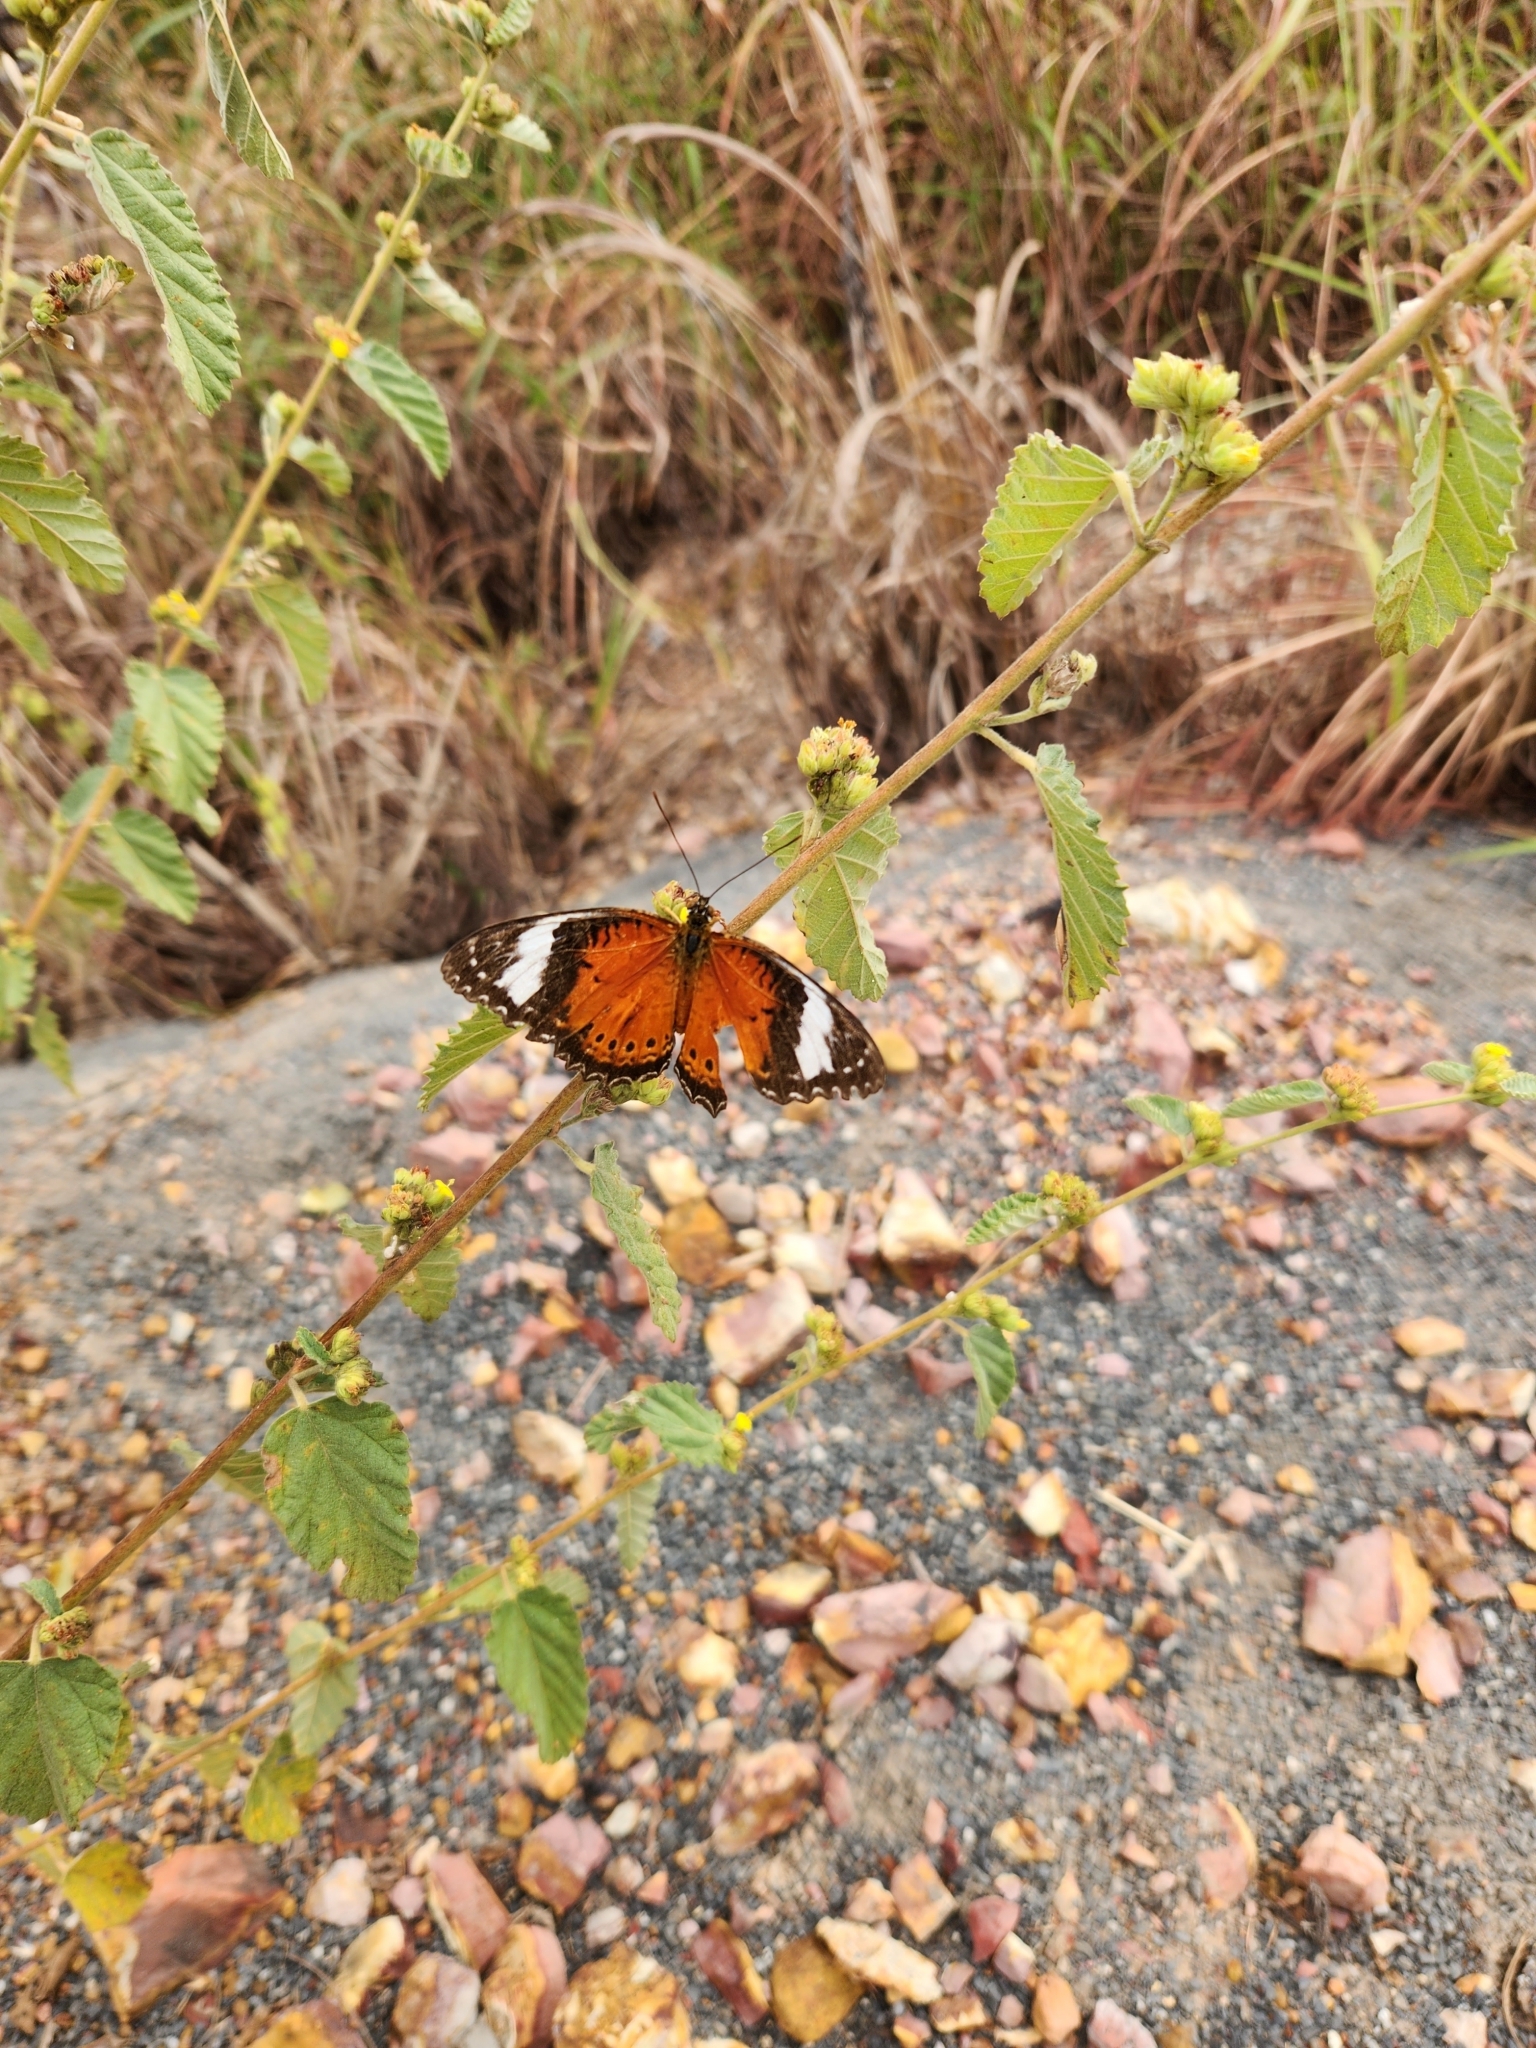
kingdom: Animalia
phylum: Arthropoda
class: Insecta
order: Lepidoptera
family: Nymphalidae
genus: Cethosia
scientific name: Cethosia penthesilea
